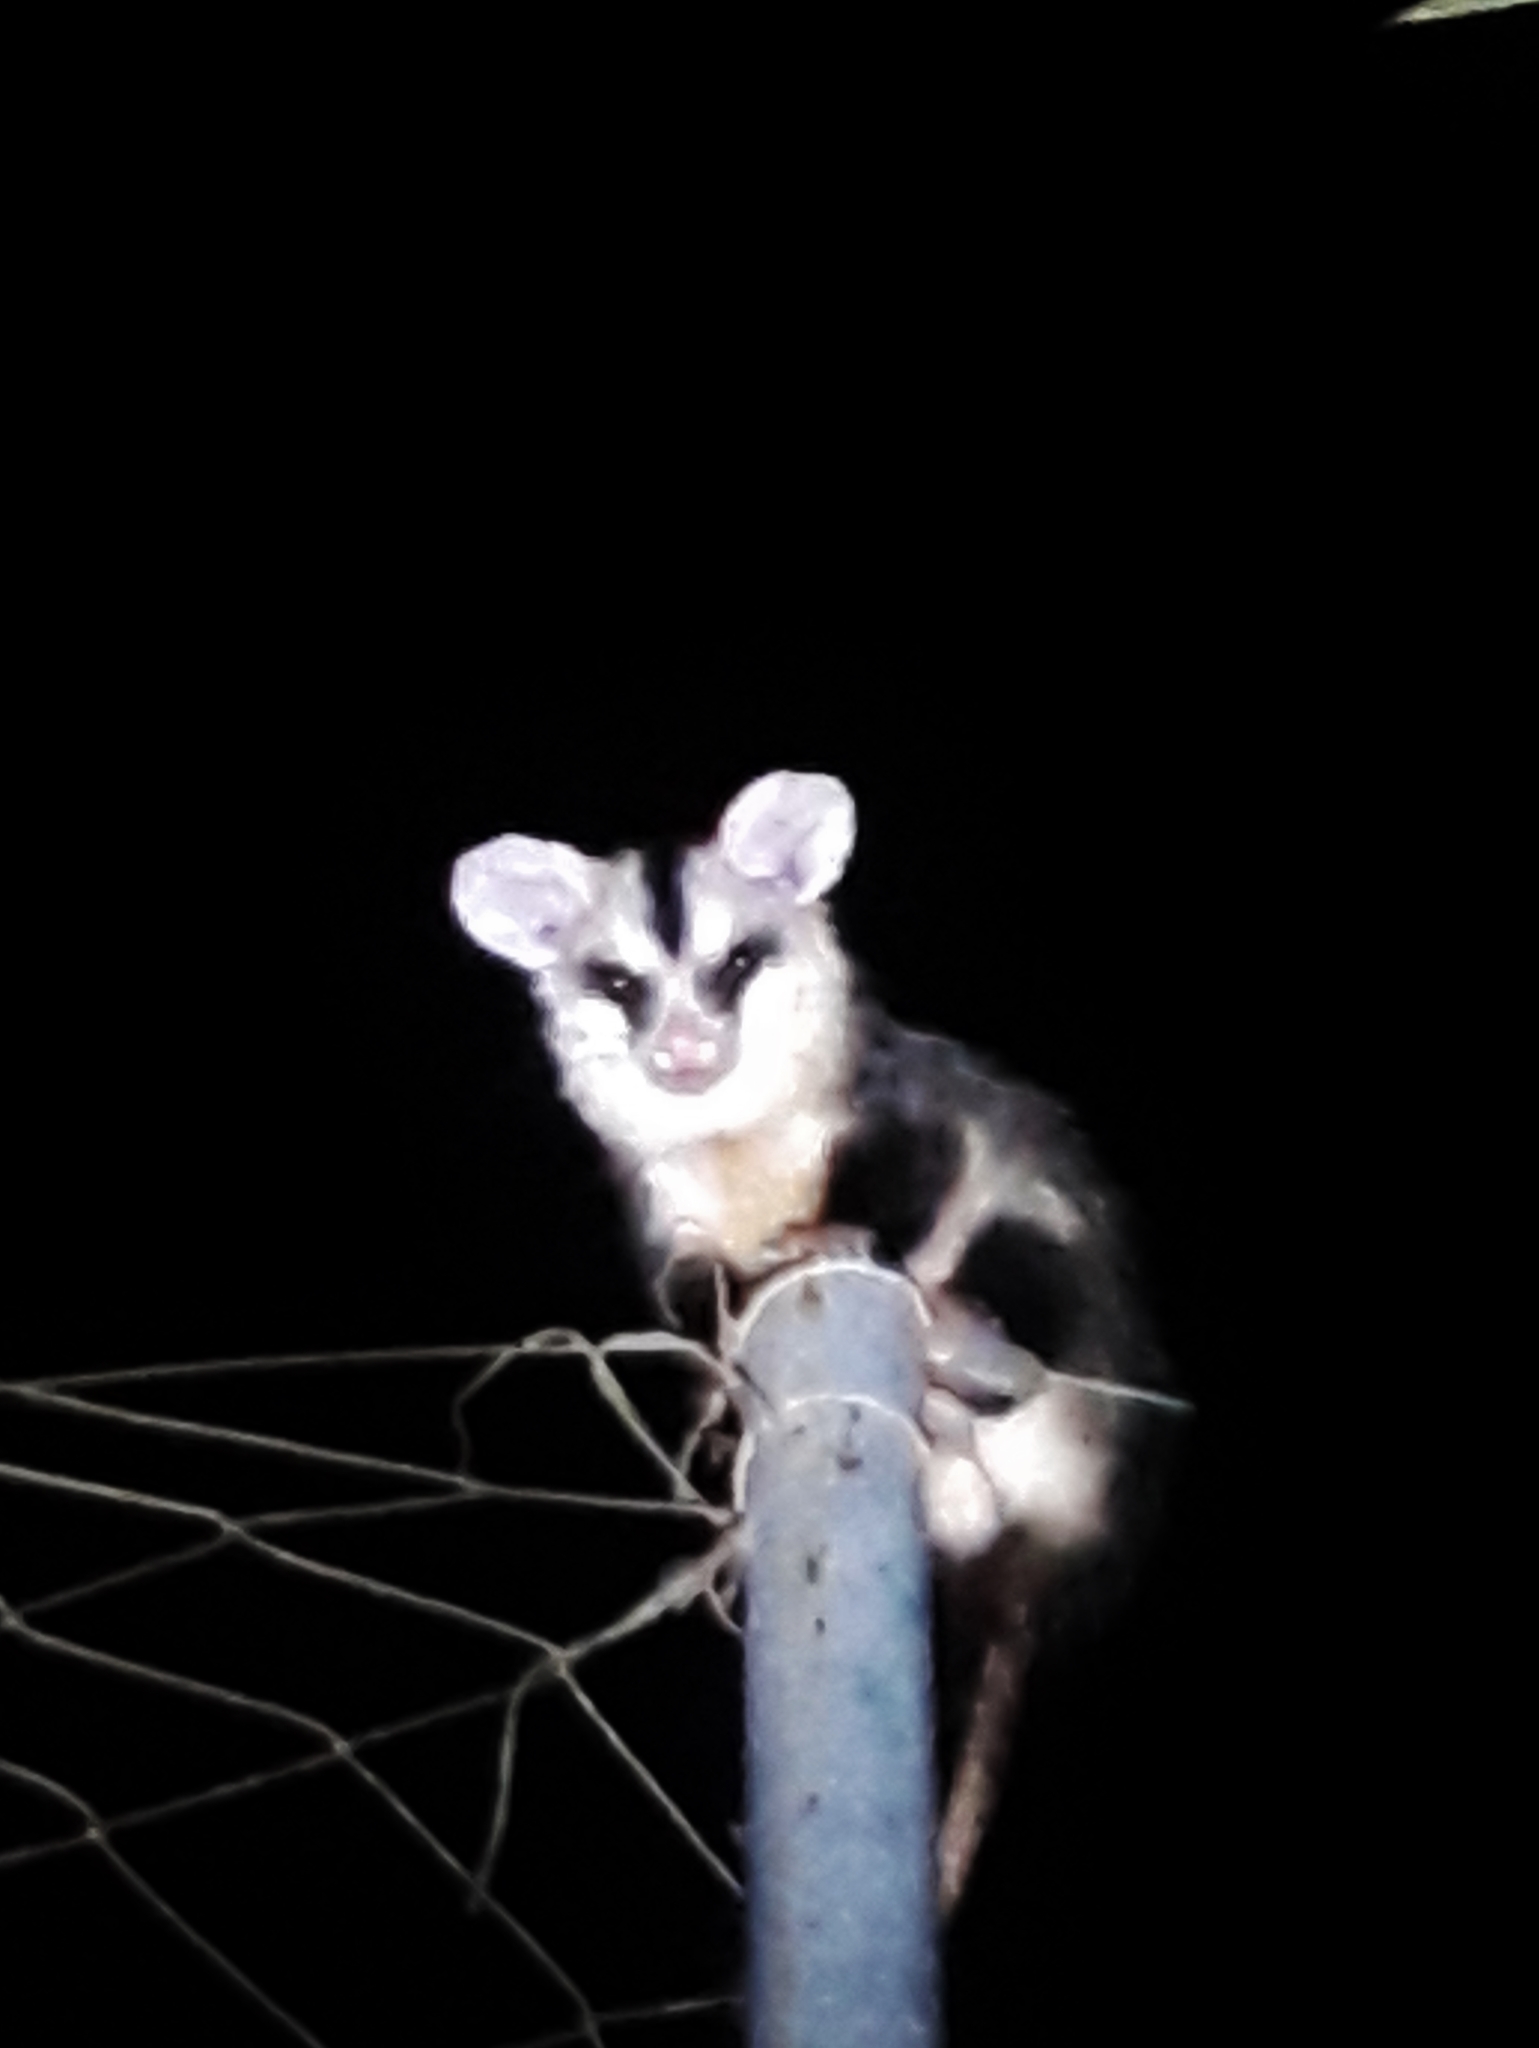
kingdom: Animalia
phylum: Chordata
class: Mammalia
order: Didelphimorphia
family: Didelphidae
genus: Didelphis
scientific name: Didelphis albiventris
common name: White-eared opossum
